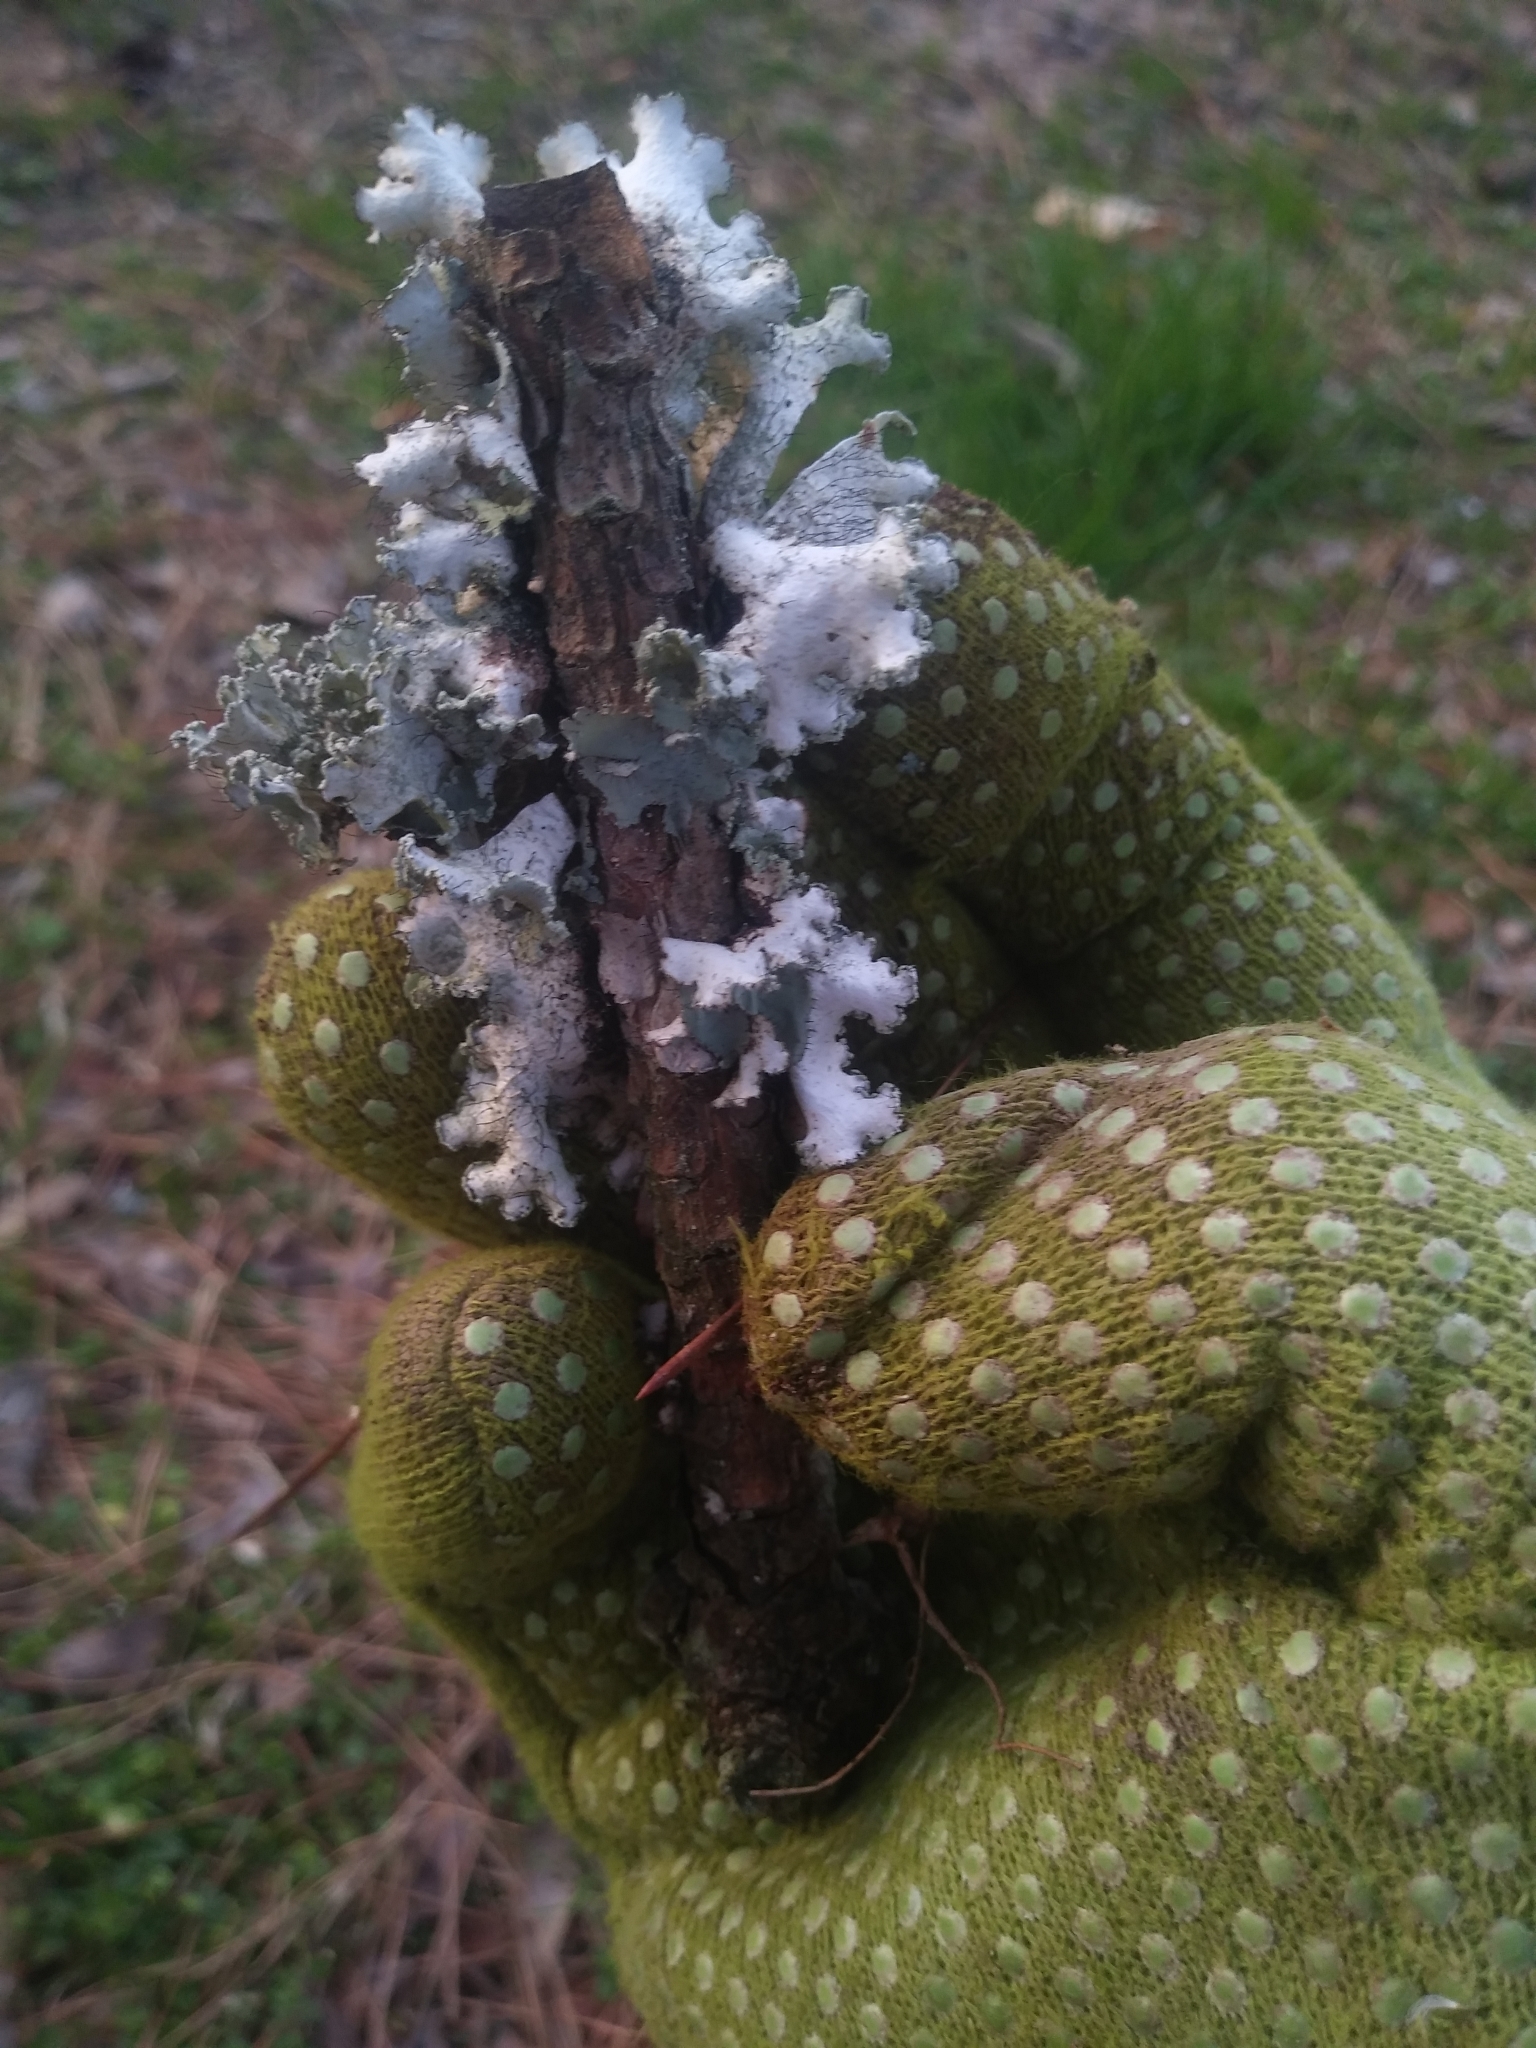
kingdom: Fungi
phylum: Ascomycota
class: Lecanoromycetes
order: Lecanorales
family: Parmeliaceae
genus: Parmotrema
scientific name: Parmotrema hypotropum
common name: Powdered ruffle lichen
